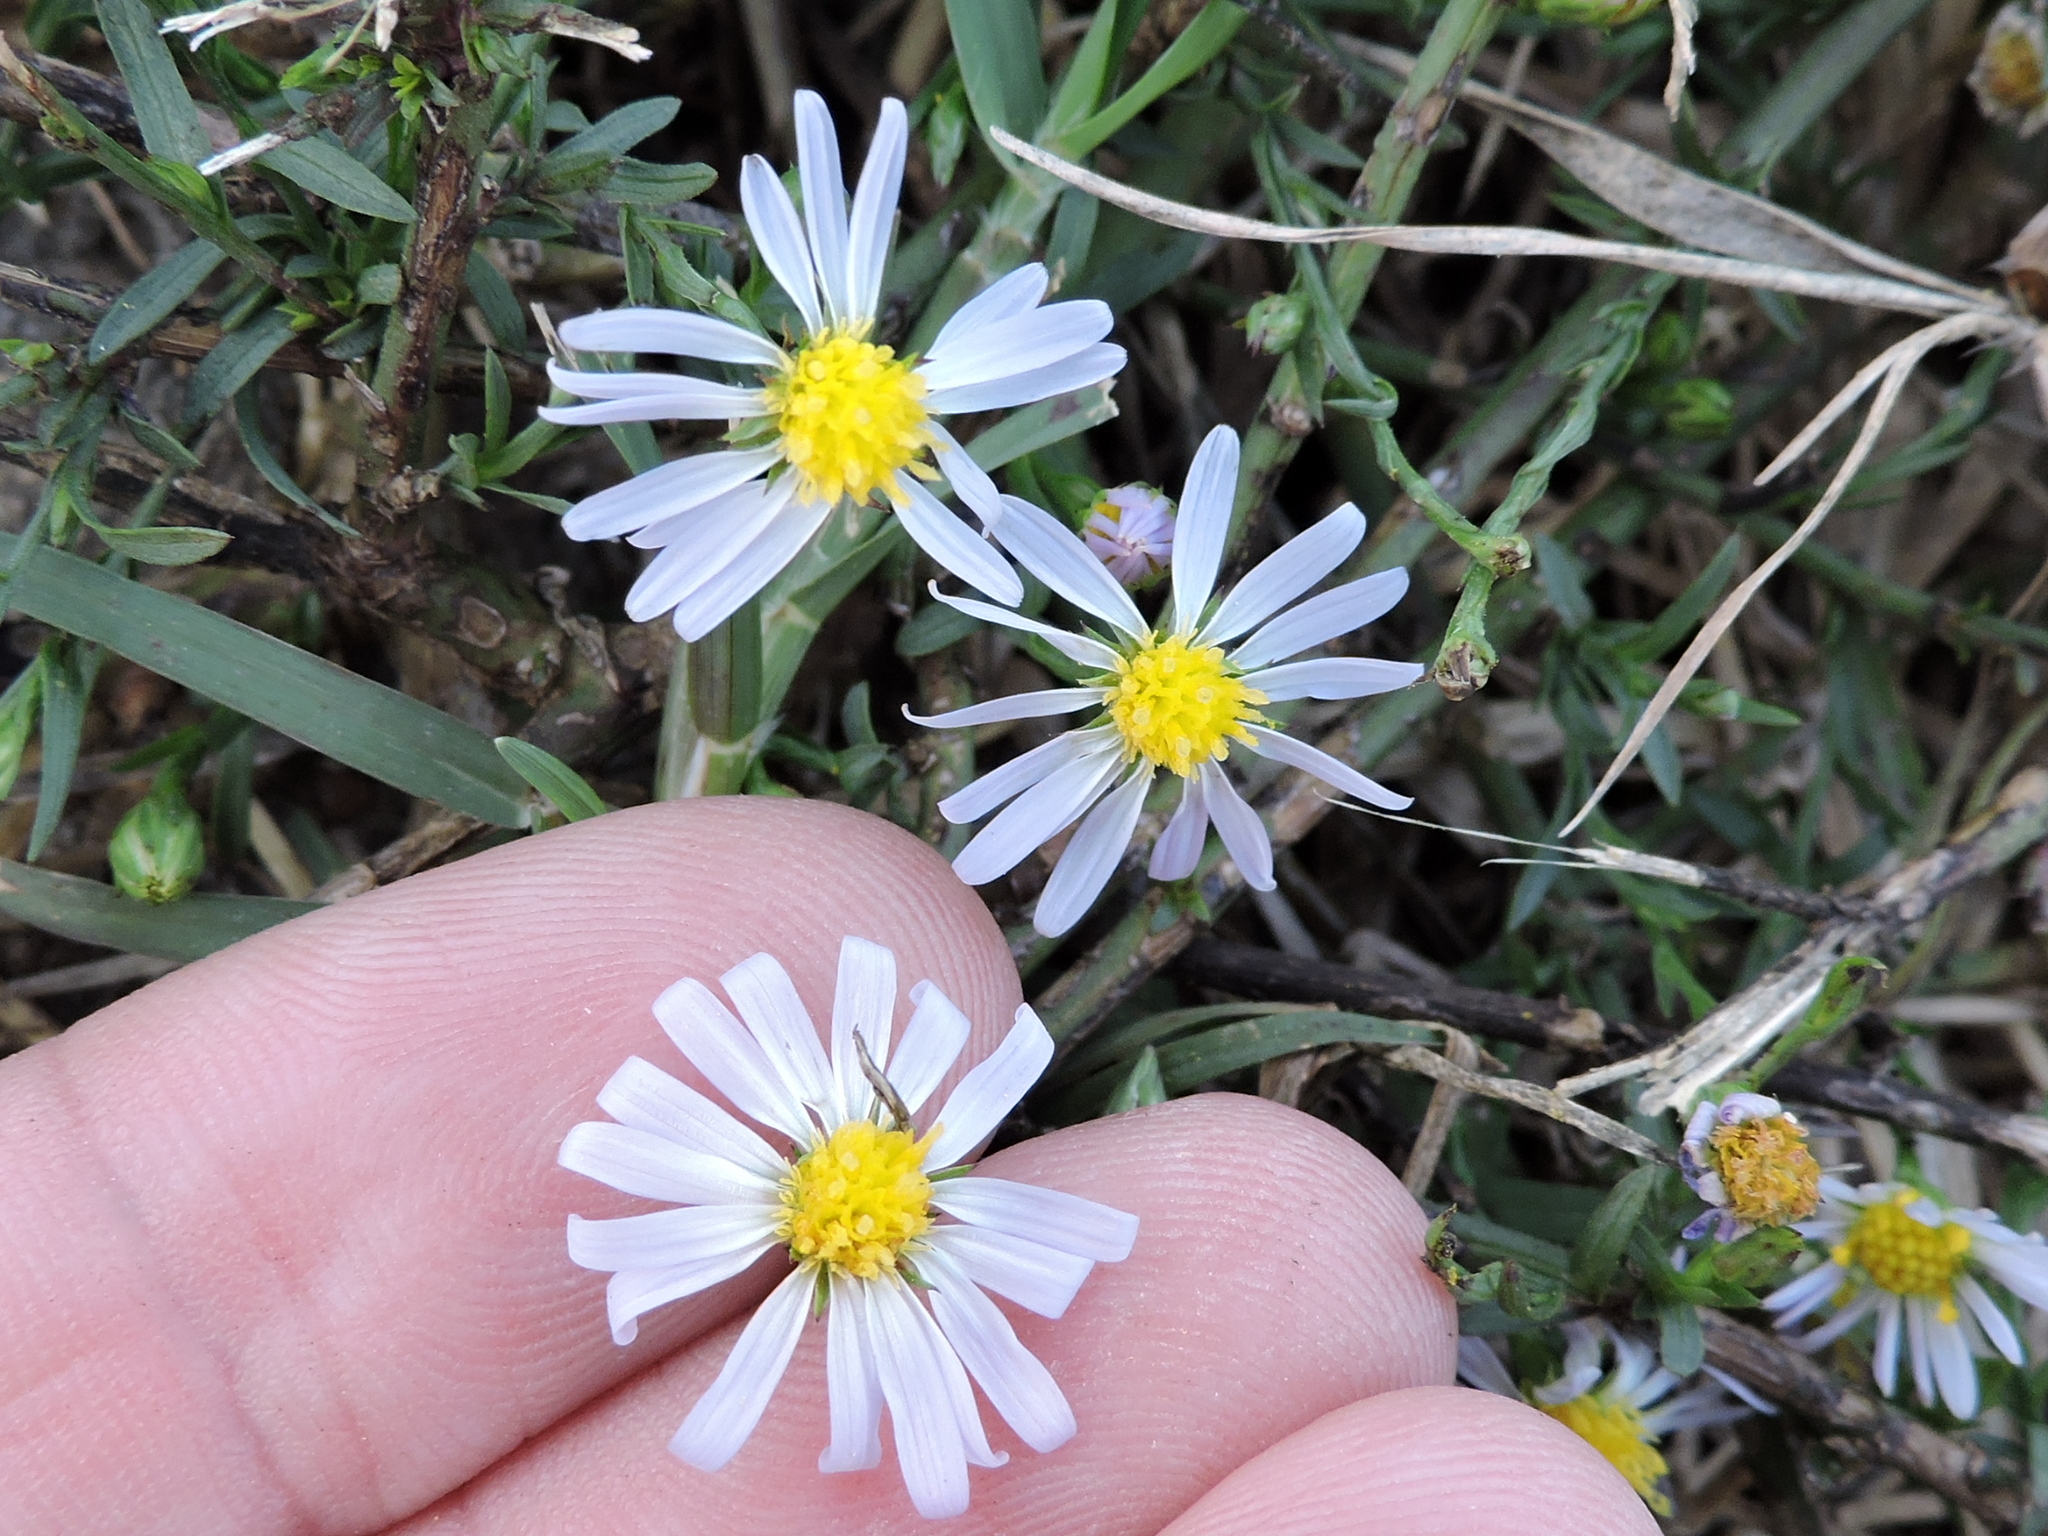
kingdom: Plantae
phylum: Tracheophyta
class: Magnoliopsida
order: Asterales
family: Asteraceae
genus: Symphyotrichum
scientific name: Symphyotrichum divaricatum
